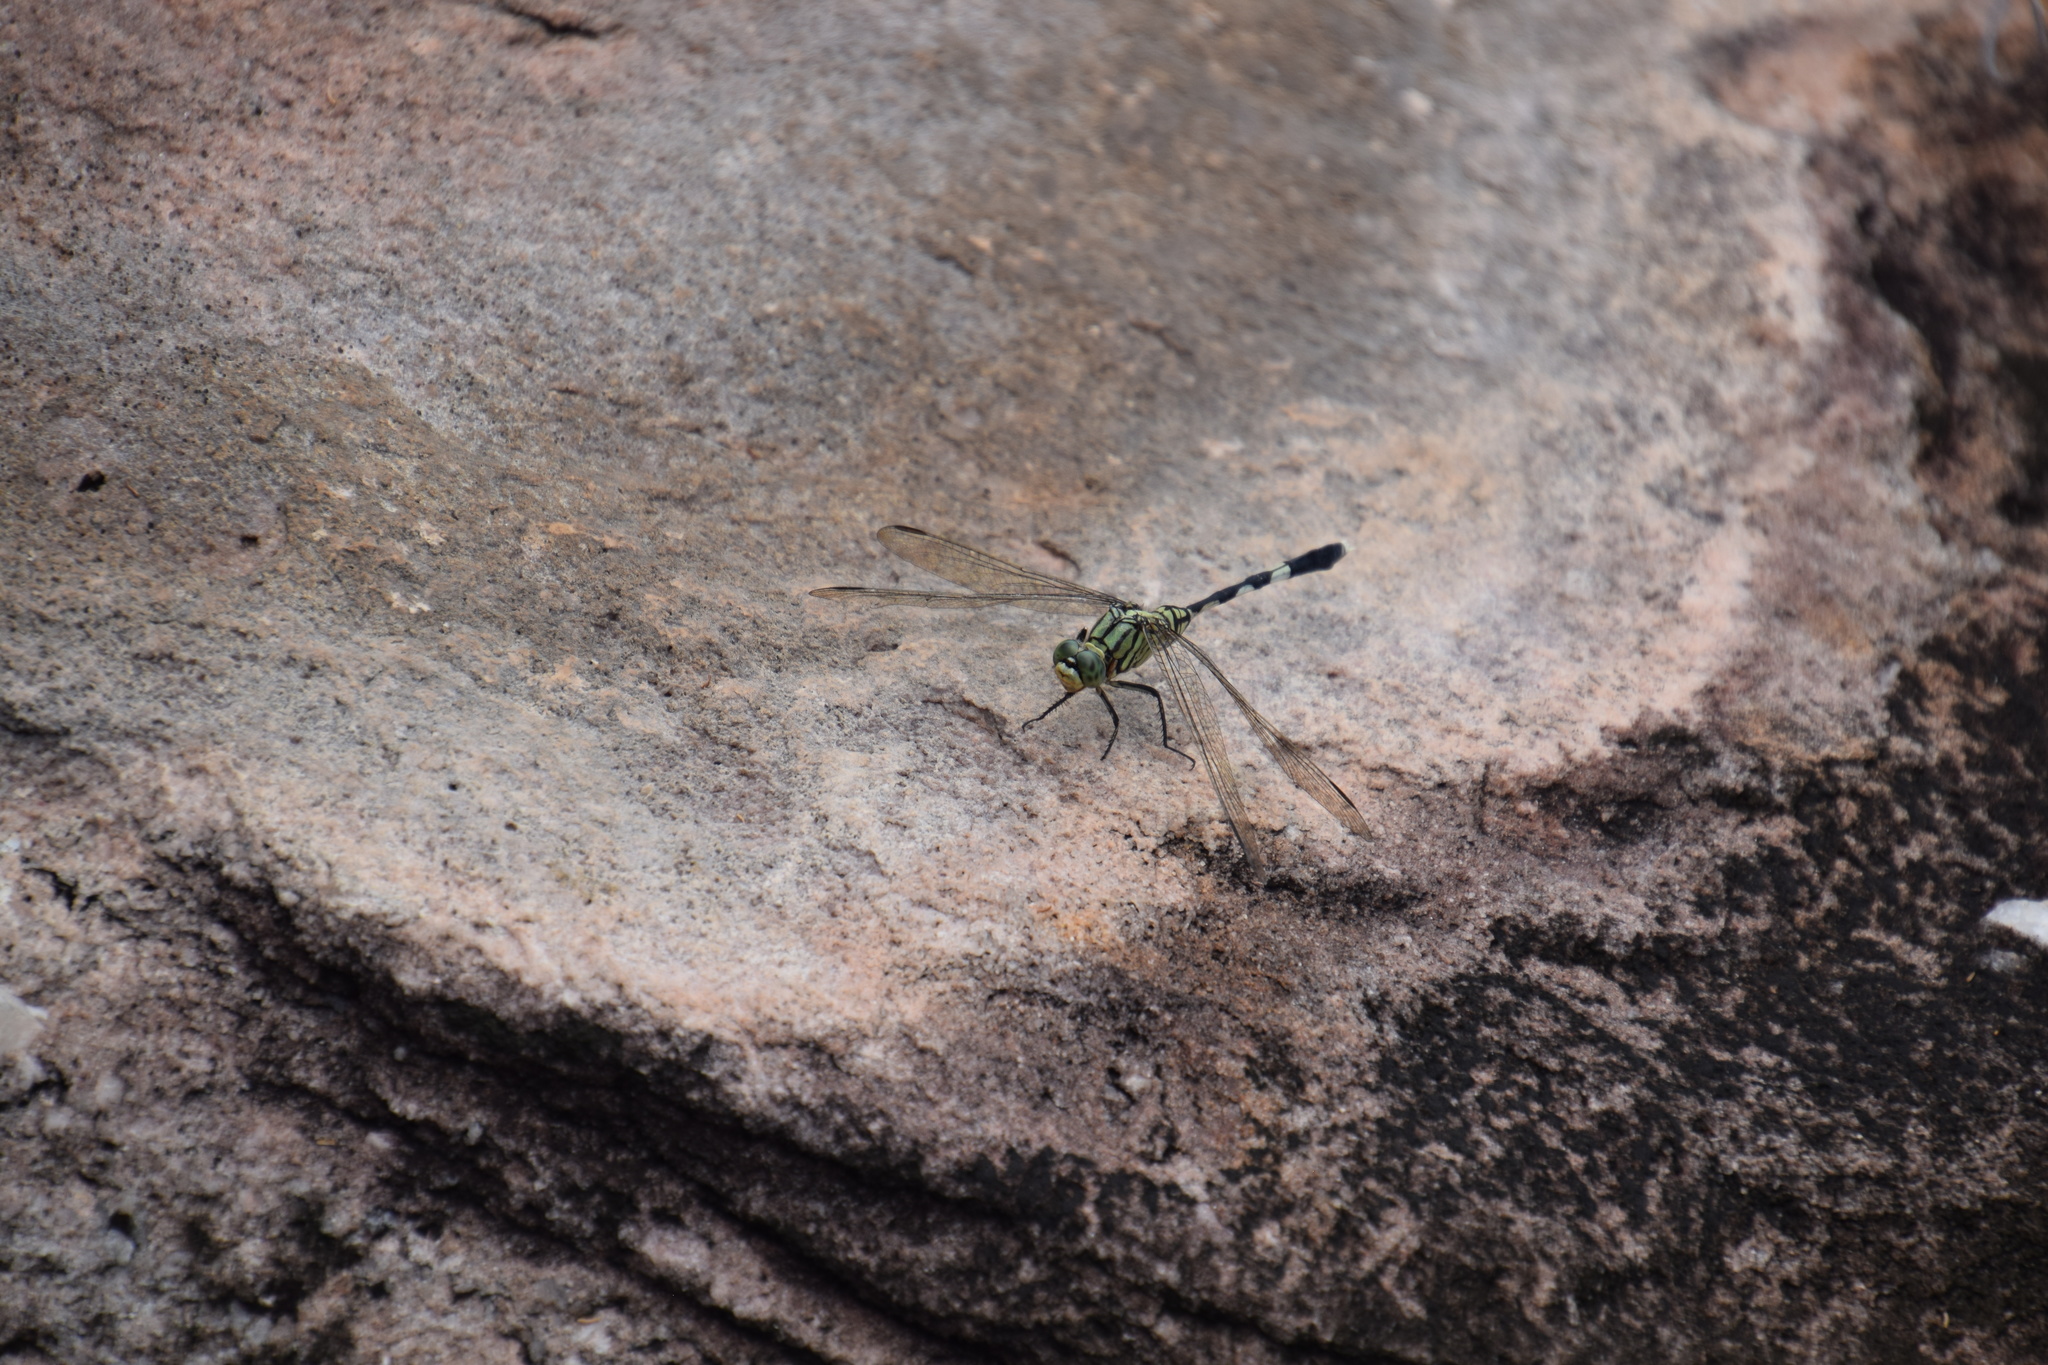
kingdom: Animalia
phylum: Arthropoda
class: Insecta
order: Odonata
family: Libellulidae
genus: Orthetrum
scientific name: Orthetrum sabina
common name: Slender skimmer
